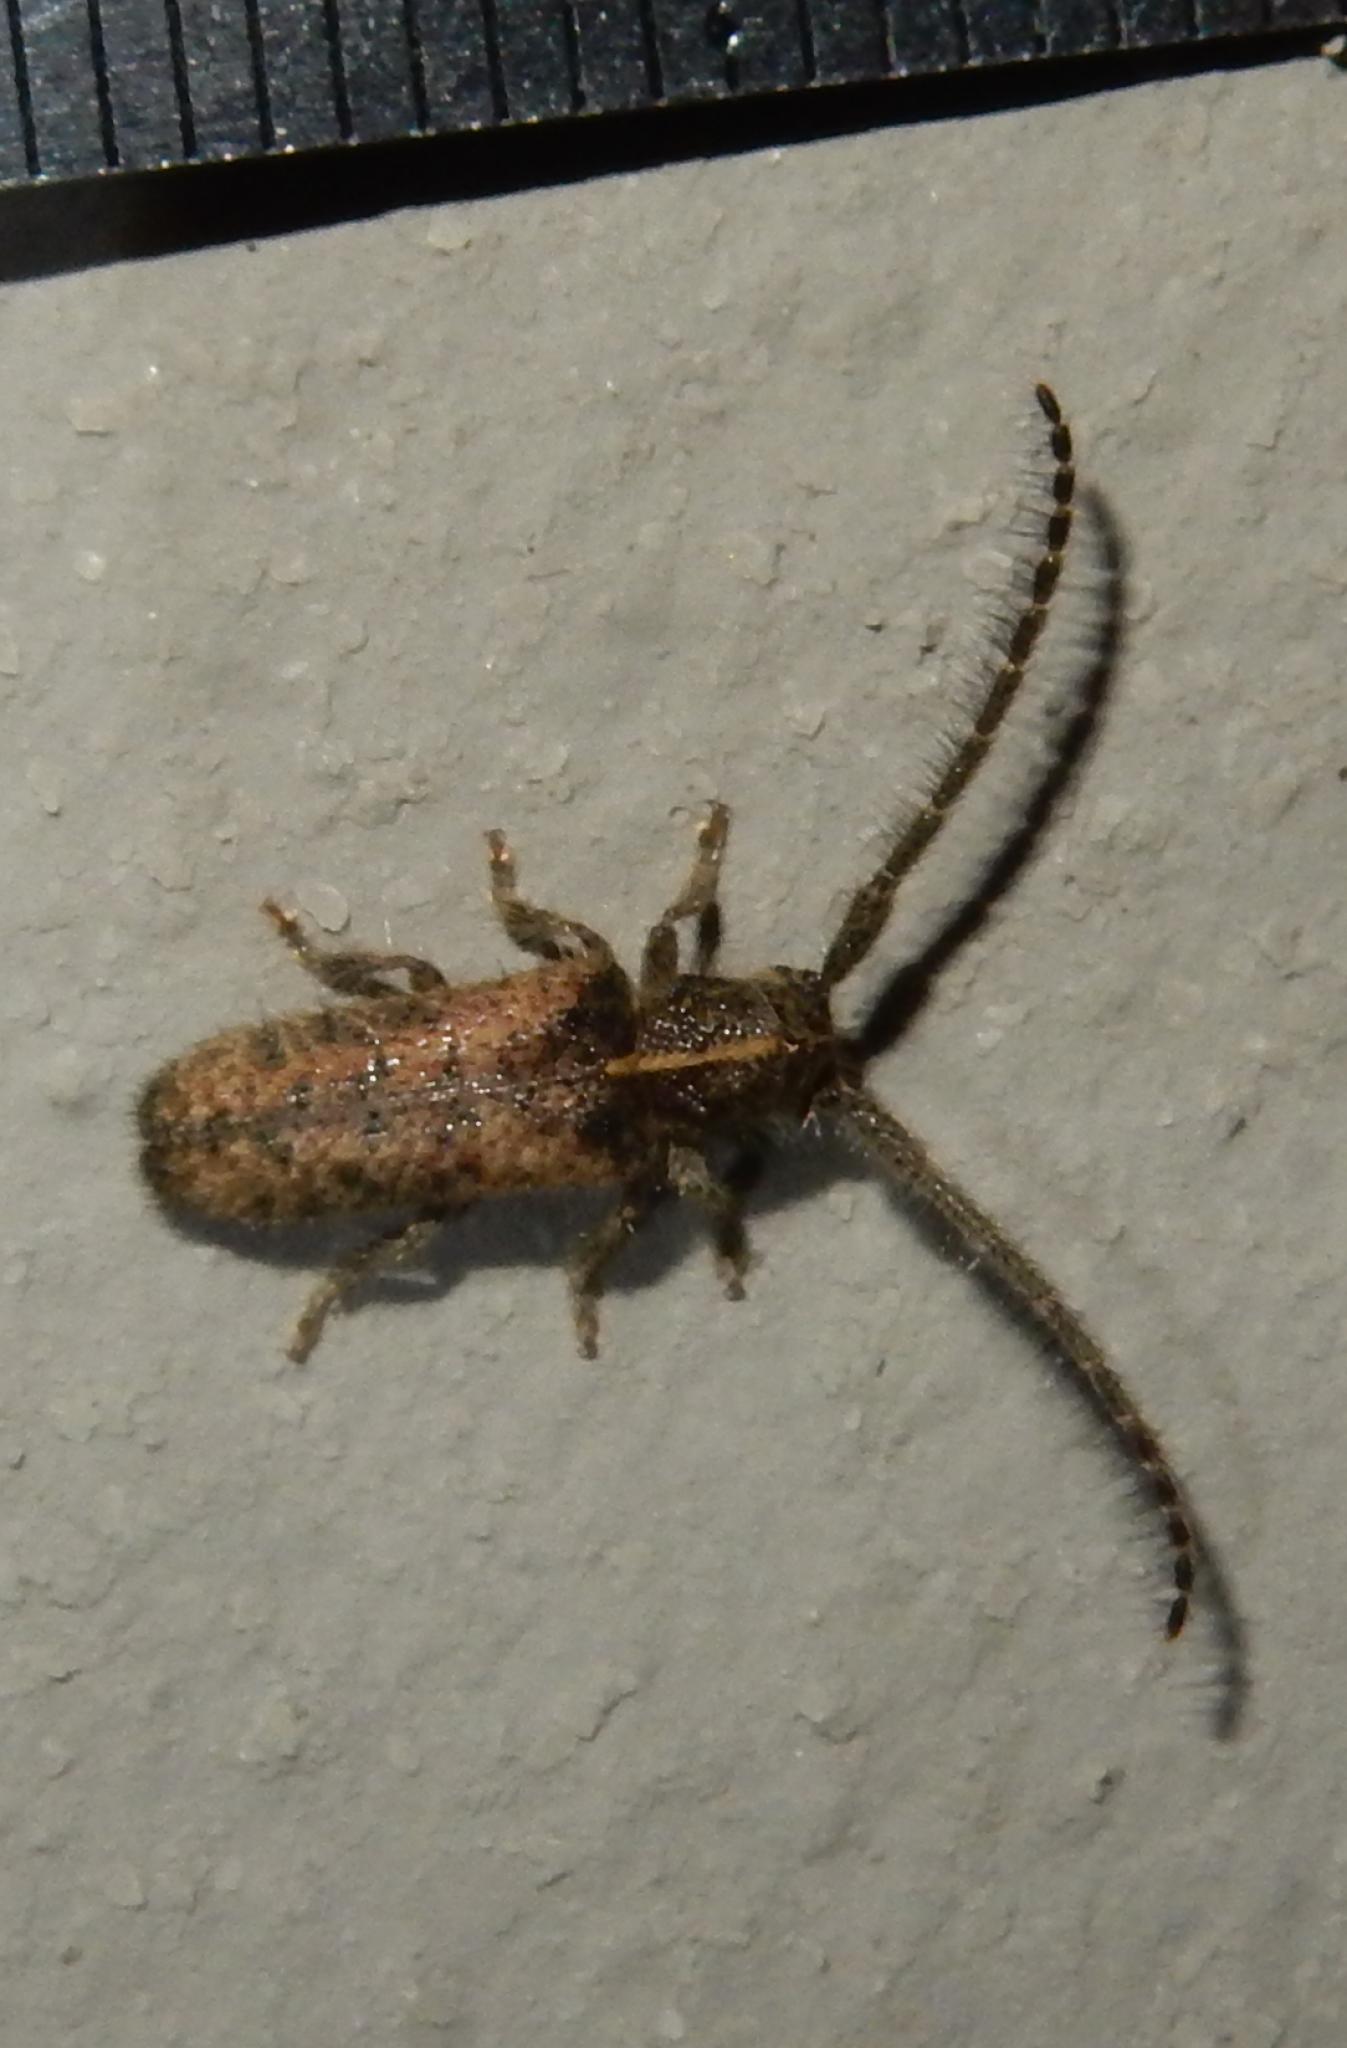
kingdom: Animalia
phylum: Arthropoda
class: Insecta
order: Coleoptera
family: Cerambycidae
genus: Sophronica
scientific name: Sophronica lineata
